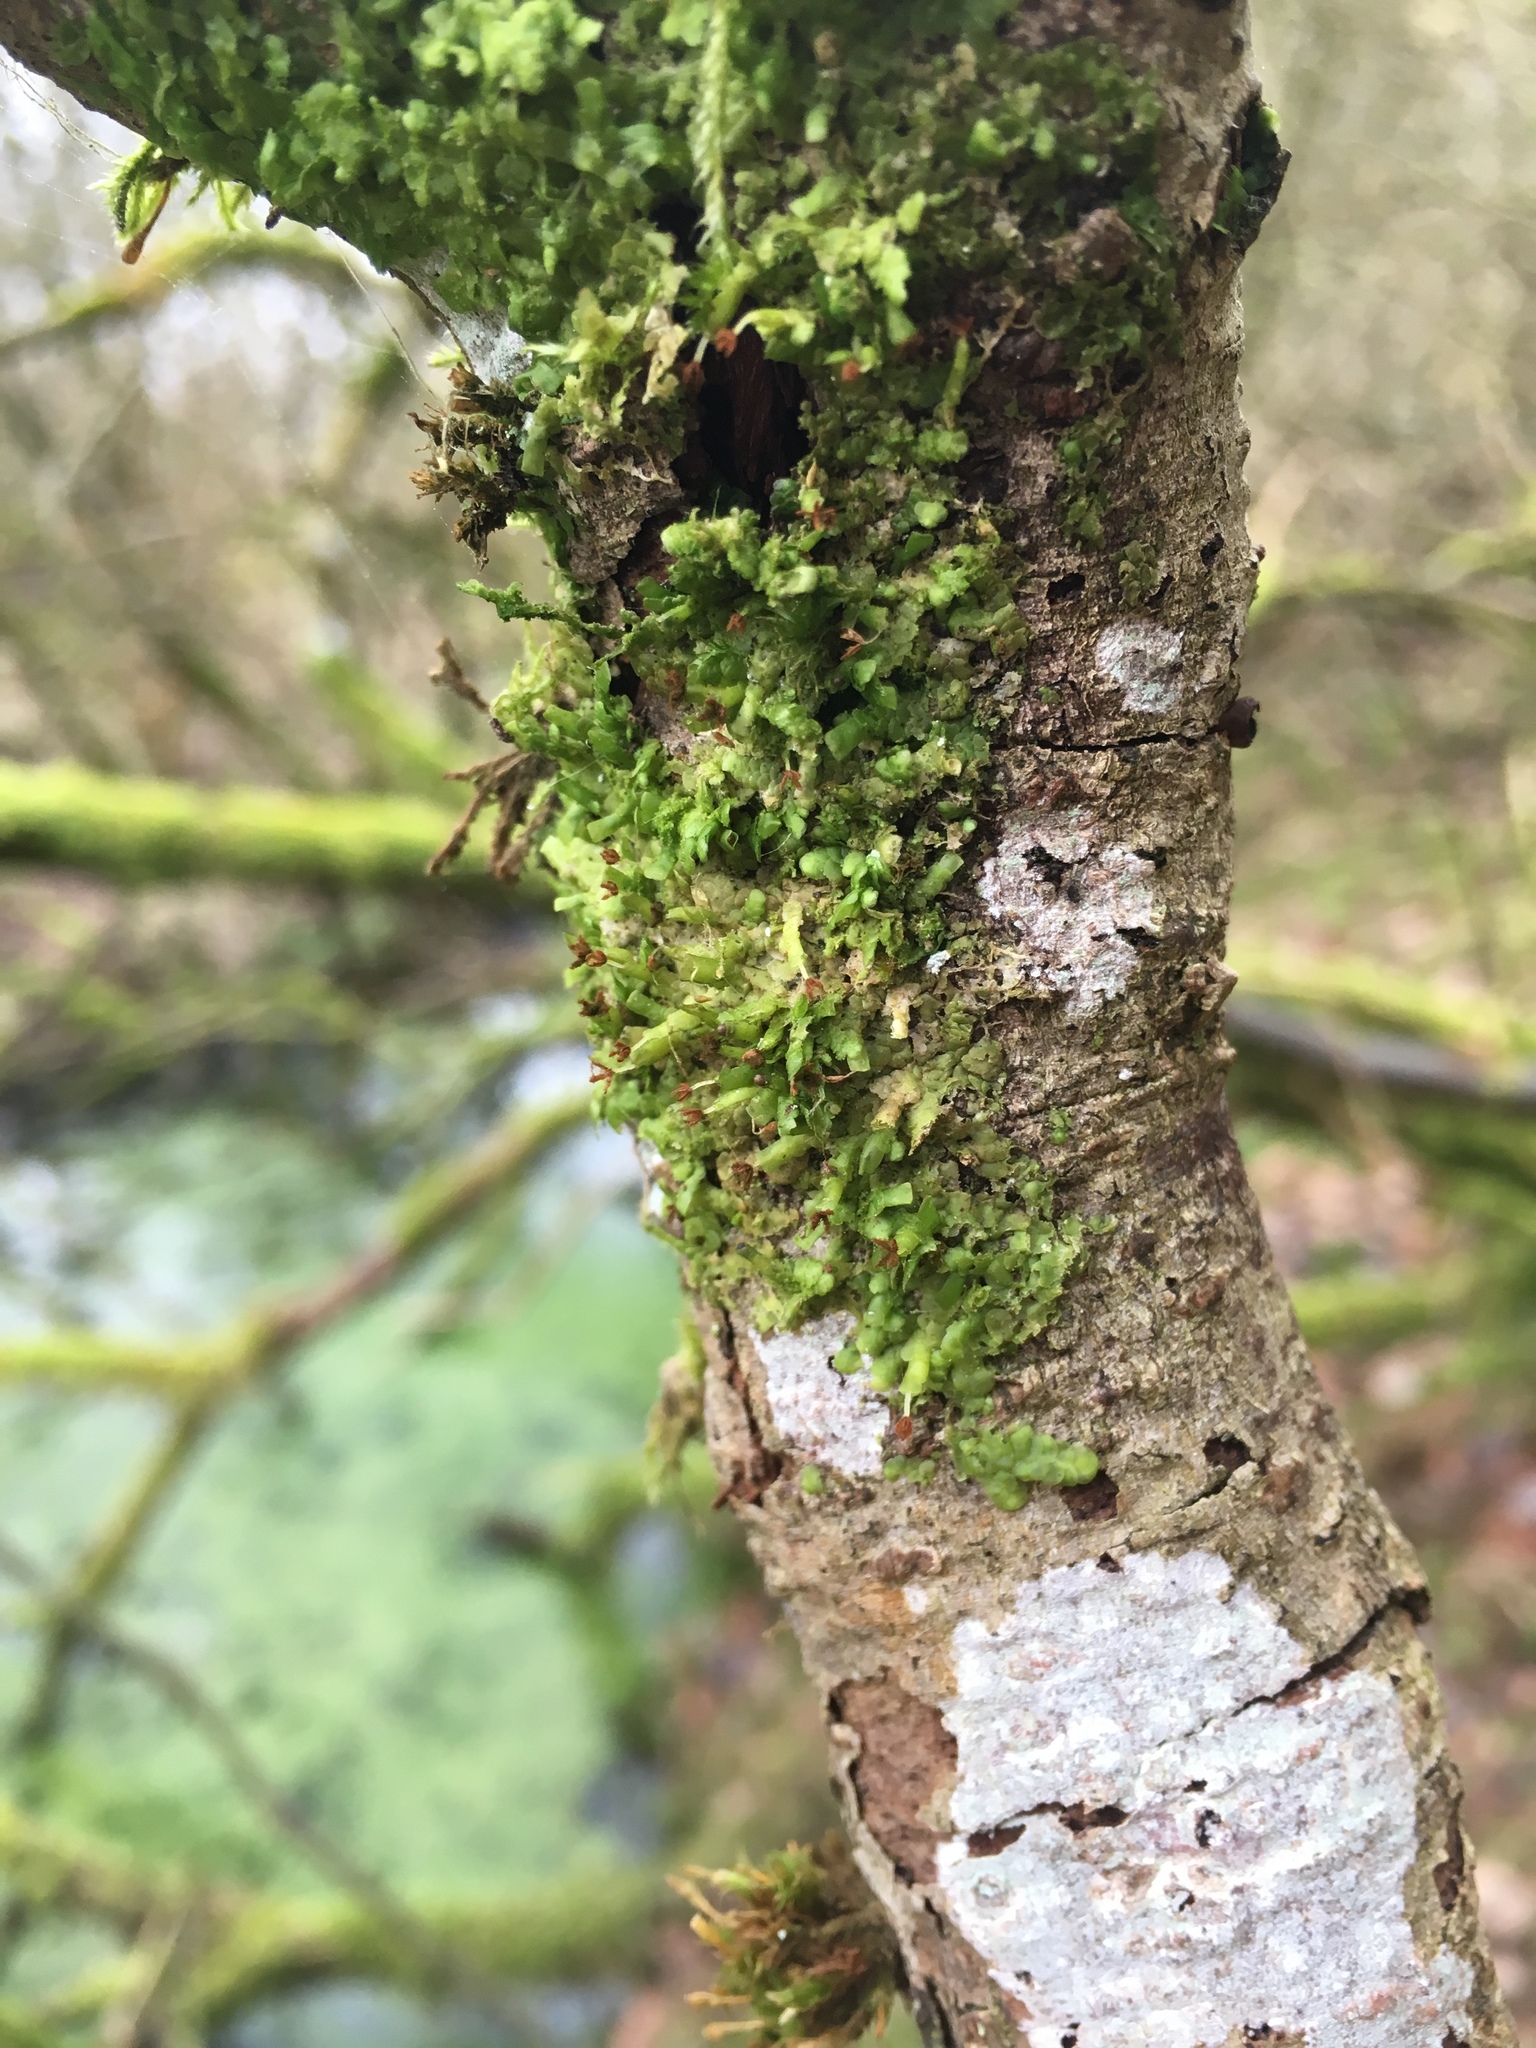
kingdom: Plantae
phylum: Marchantiophyta
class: Jungermanniopsida
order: Porellales
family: Radulaceae
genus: Radula
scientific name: Radula complanata
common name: Flat-leaved scalewort
